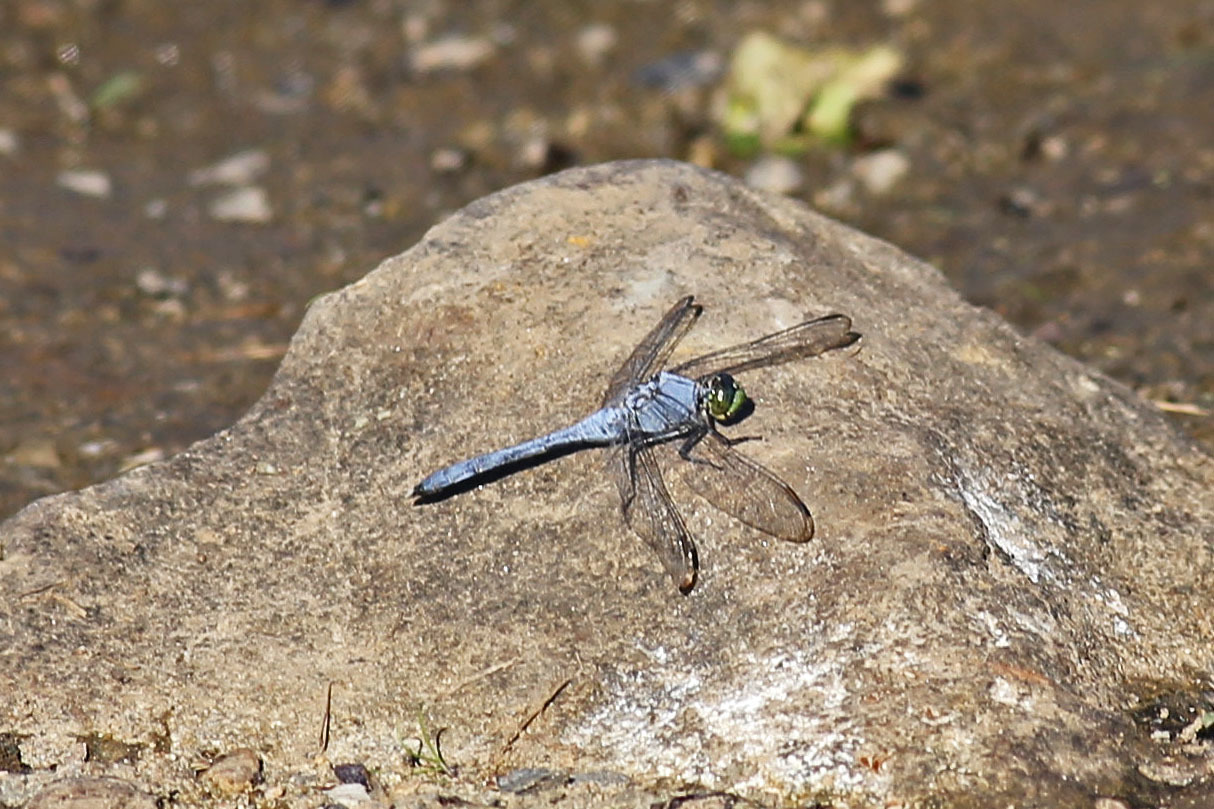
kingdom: Animalia
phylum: Arthropoda
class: Insecta
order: Odonata
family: Libellulidae
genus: Erythemis
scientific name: Erythemis simplicicollis
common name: Eastern pondhawk
